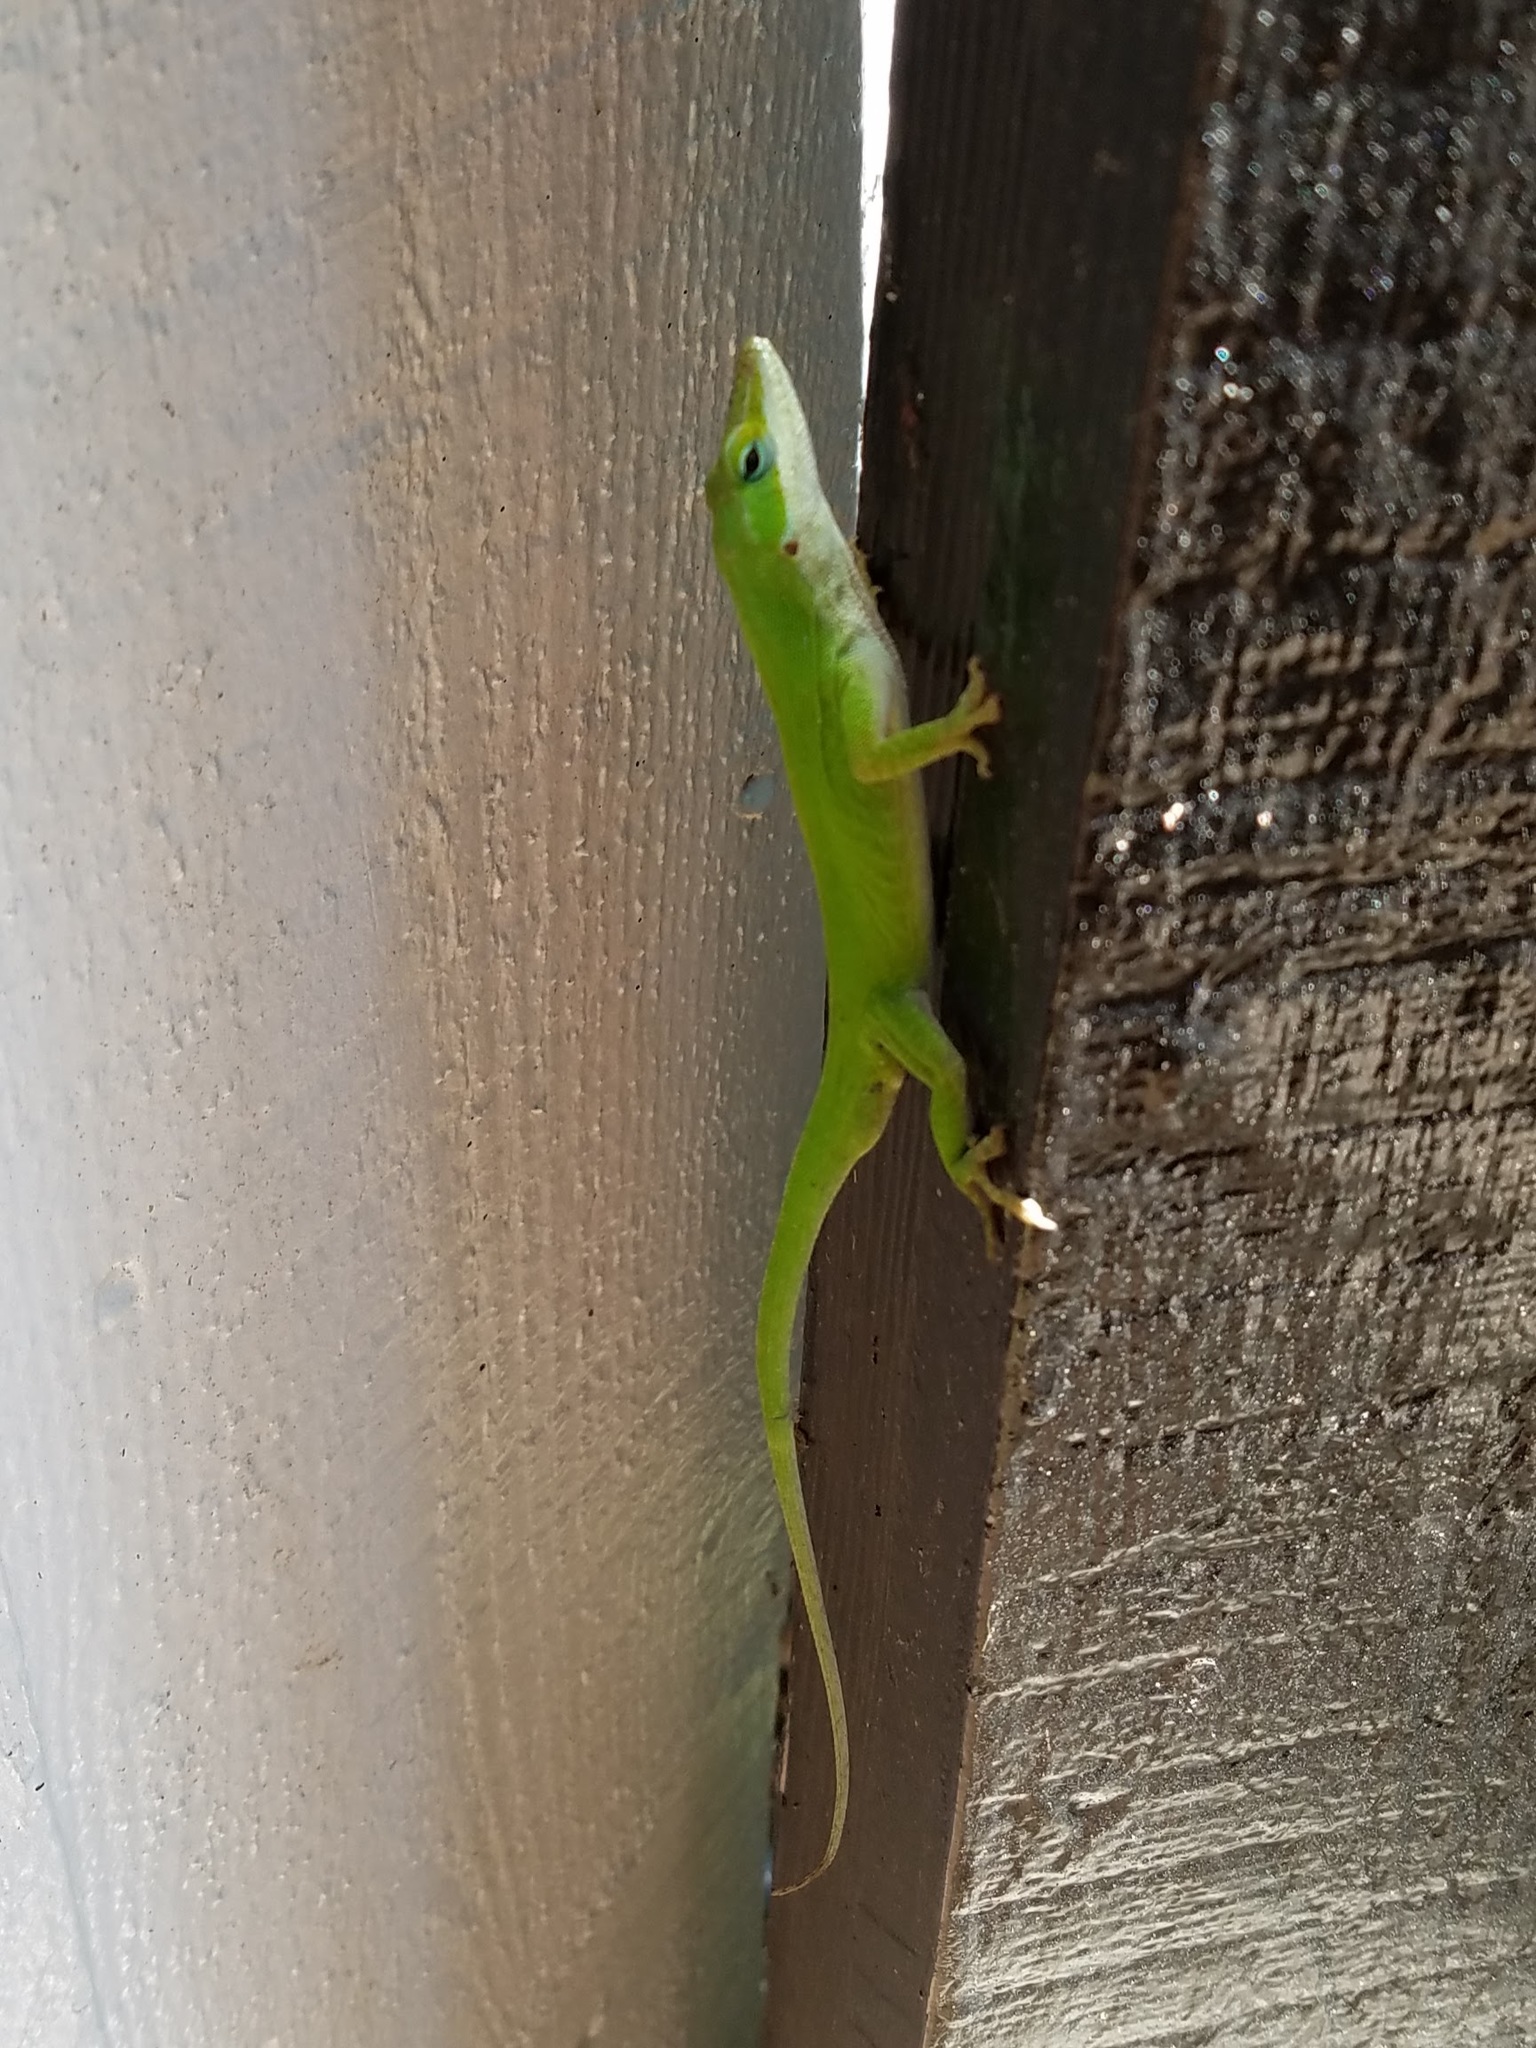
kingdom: Animalia
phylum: Chordata
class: Squamata
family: Dactyloidae
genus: Anolis
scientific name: Anolis carolinensis
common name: Green anole
